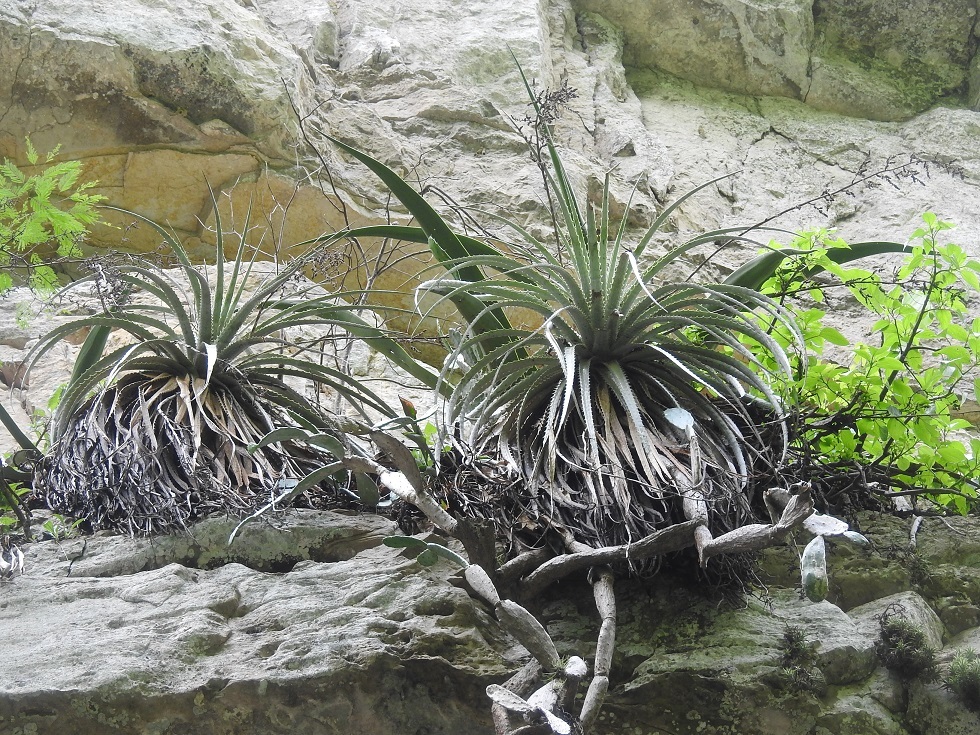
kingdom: Plantae
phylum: Tracheophyta
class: Liliopsida
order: Poales
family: Bromeliaceae
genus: Hechtia
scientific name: Hechtia glomerata
